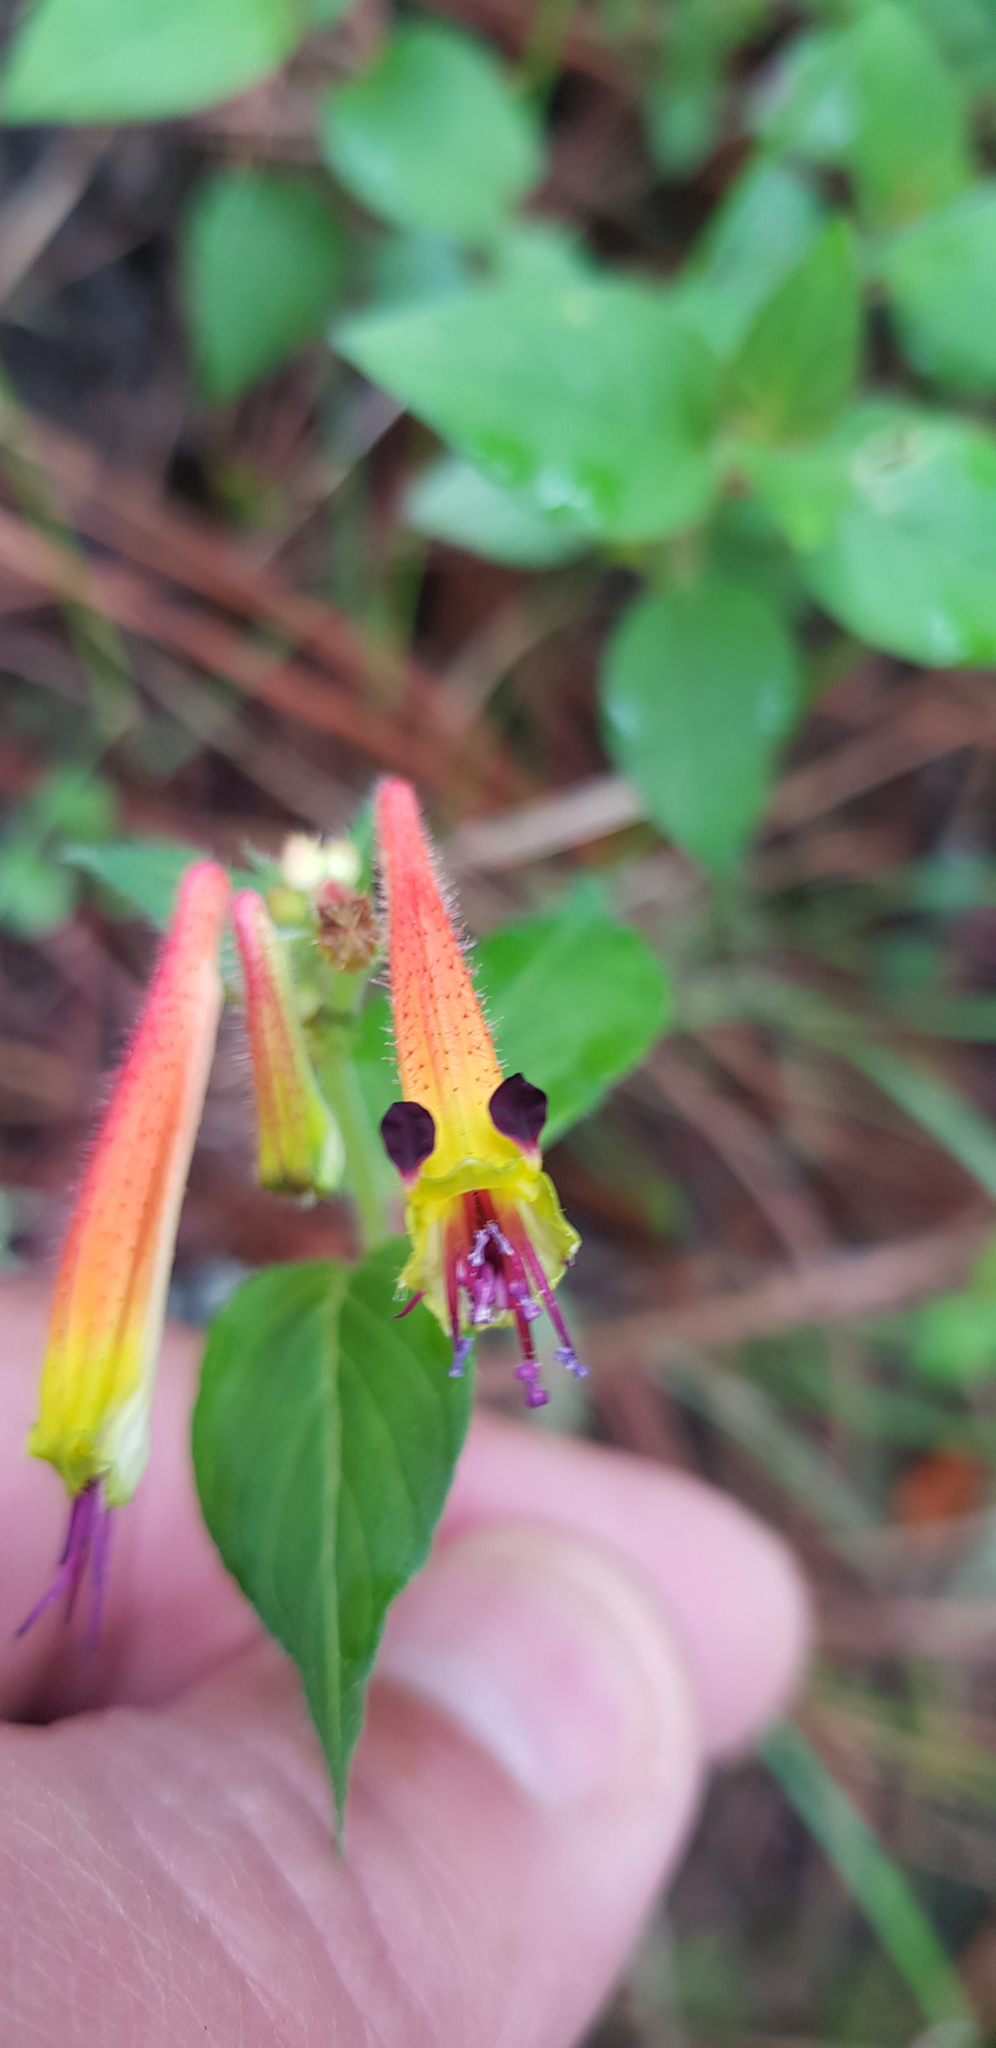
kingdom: Plantae
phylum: Tracheophyta
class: Magnoliopsida
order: Myrtales
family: Lythraceae
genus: Cuphea
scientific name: Cuphea cyanea
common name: Black-eyed cuphea
